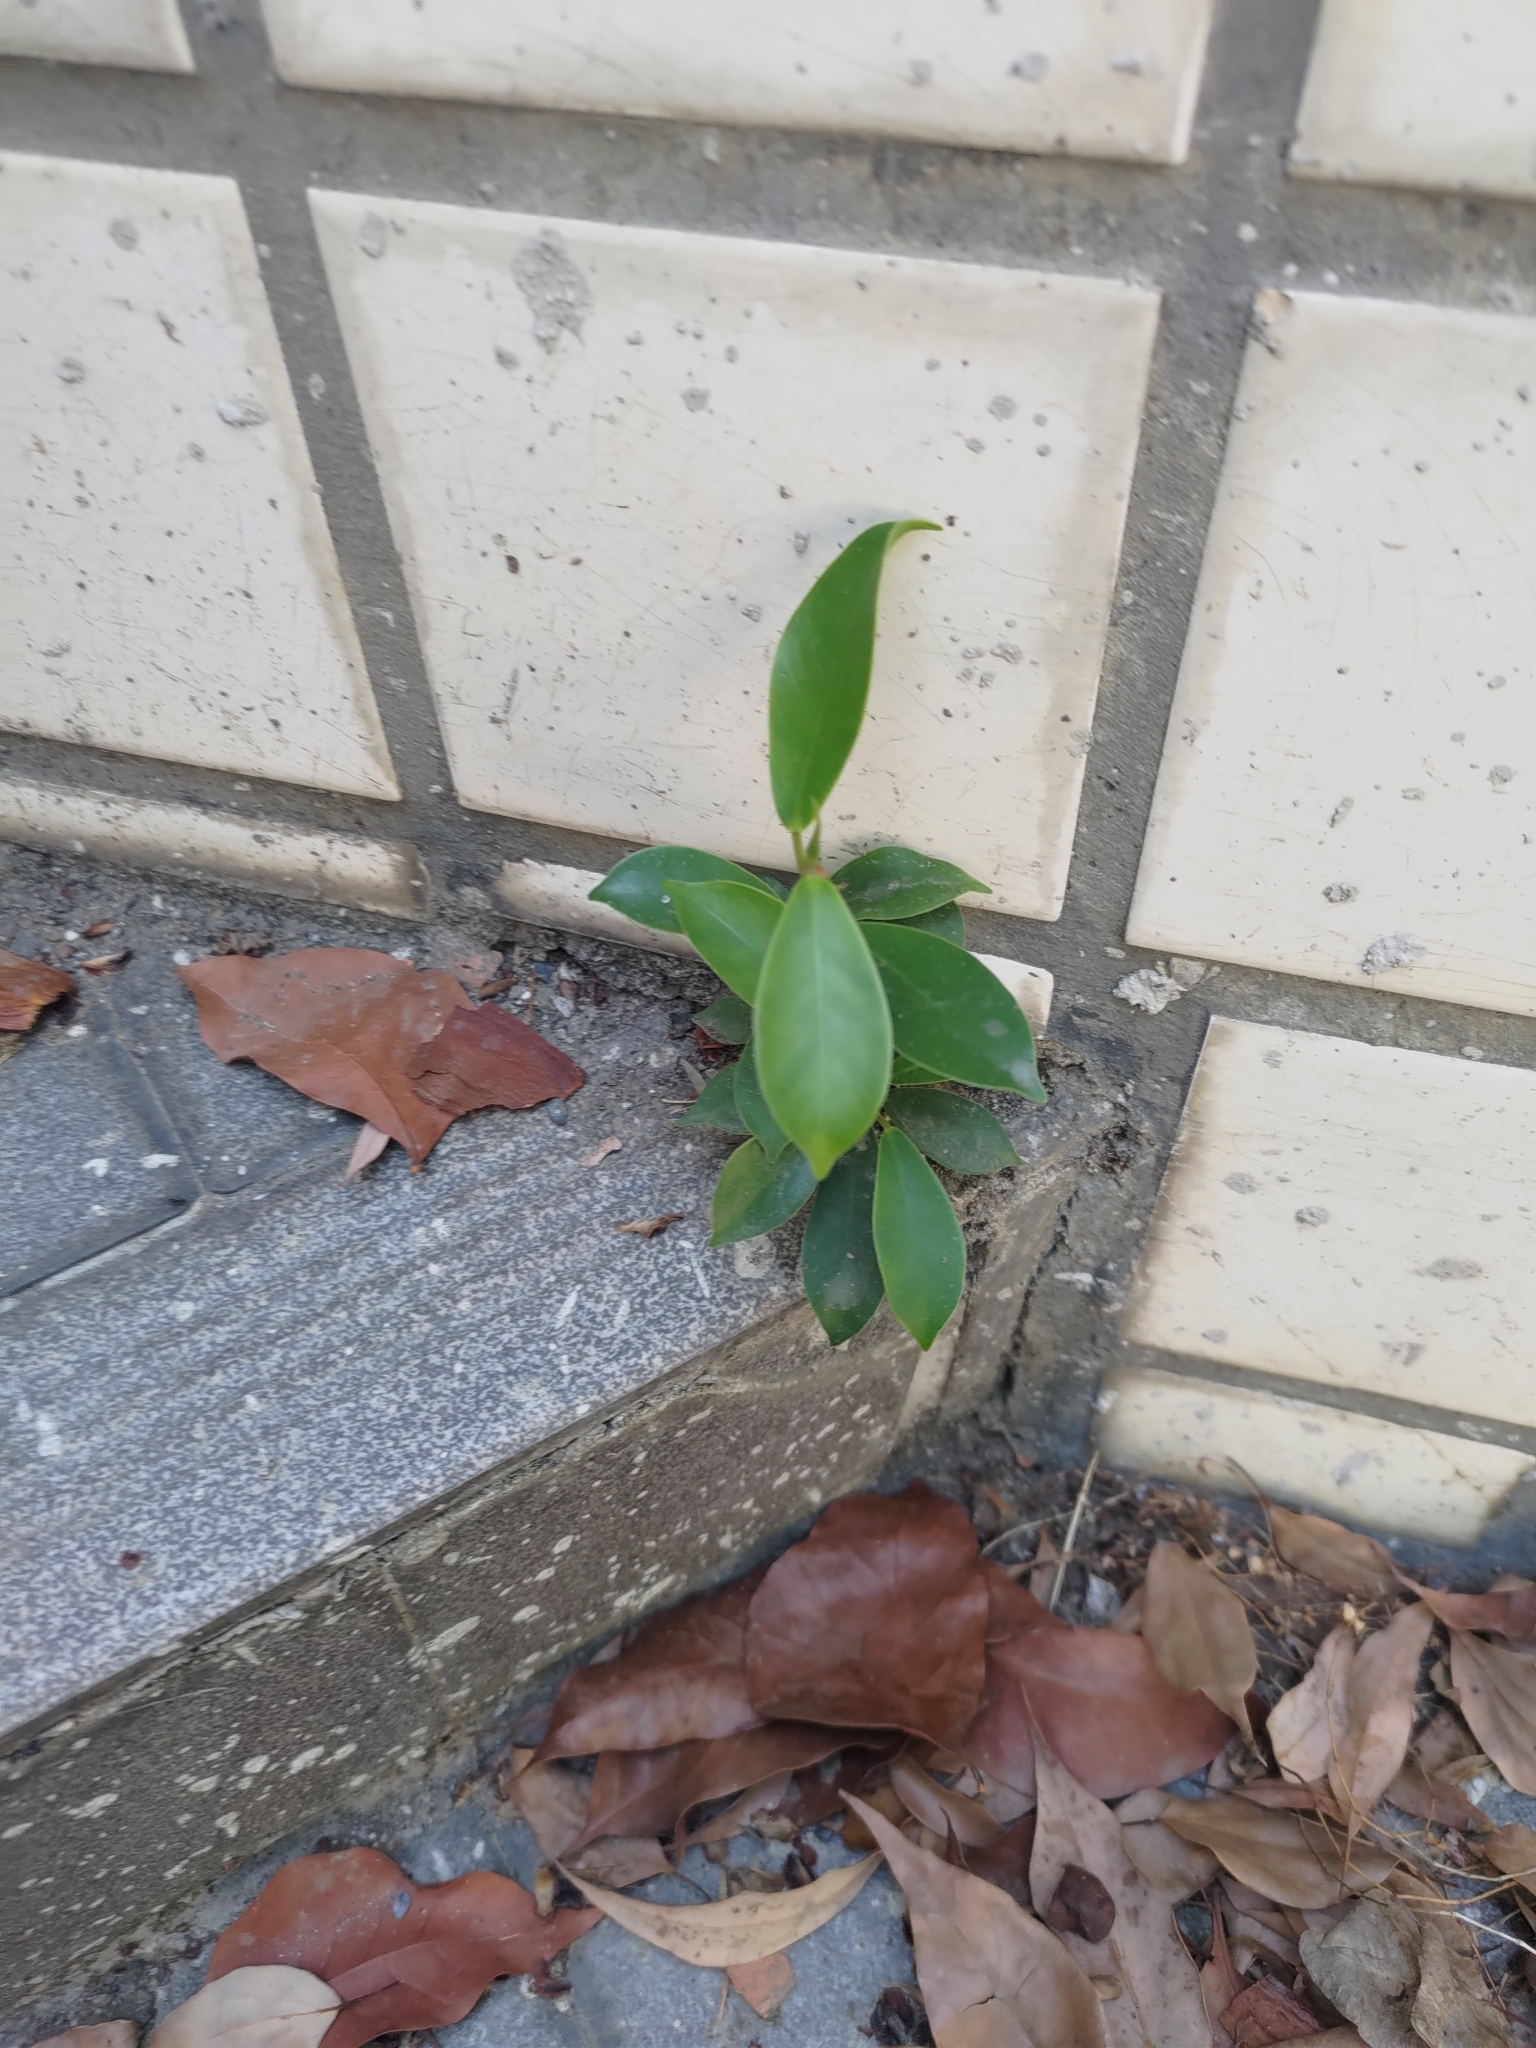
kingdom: Plantae
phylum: Tracheophyta
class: Magnoliopsida
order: Rosales
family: Moraceae
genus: Ficus
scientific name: Ficus microcarpa
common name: Chinese banyan
